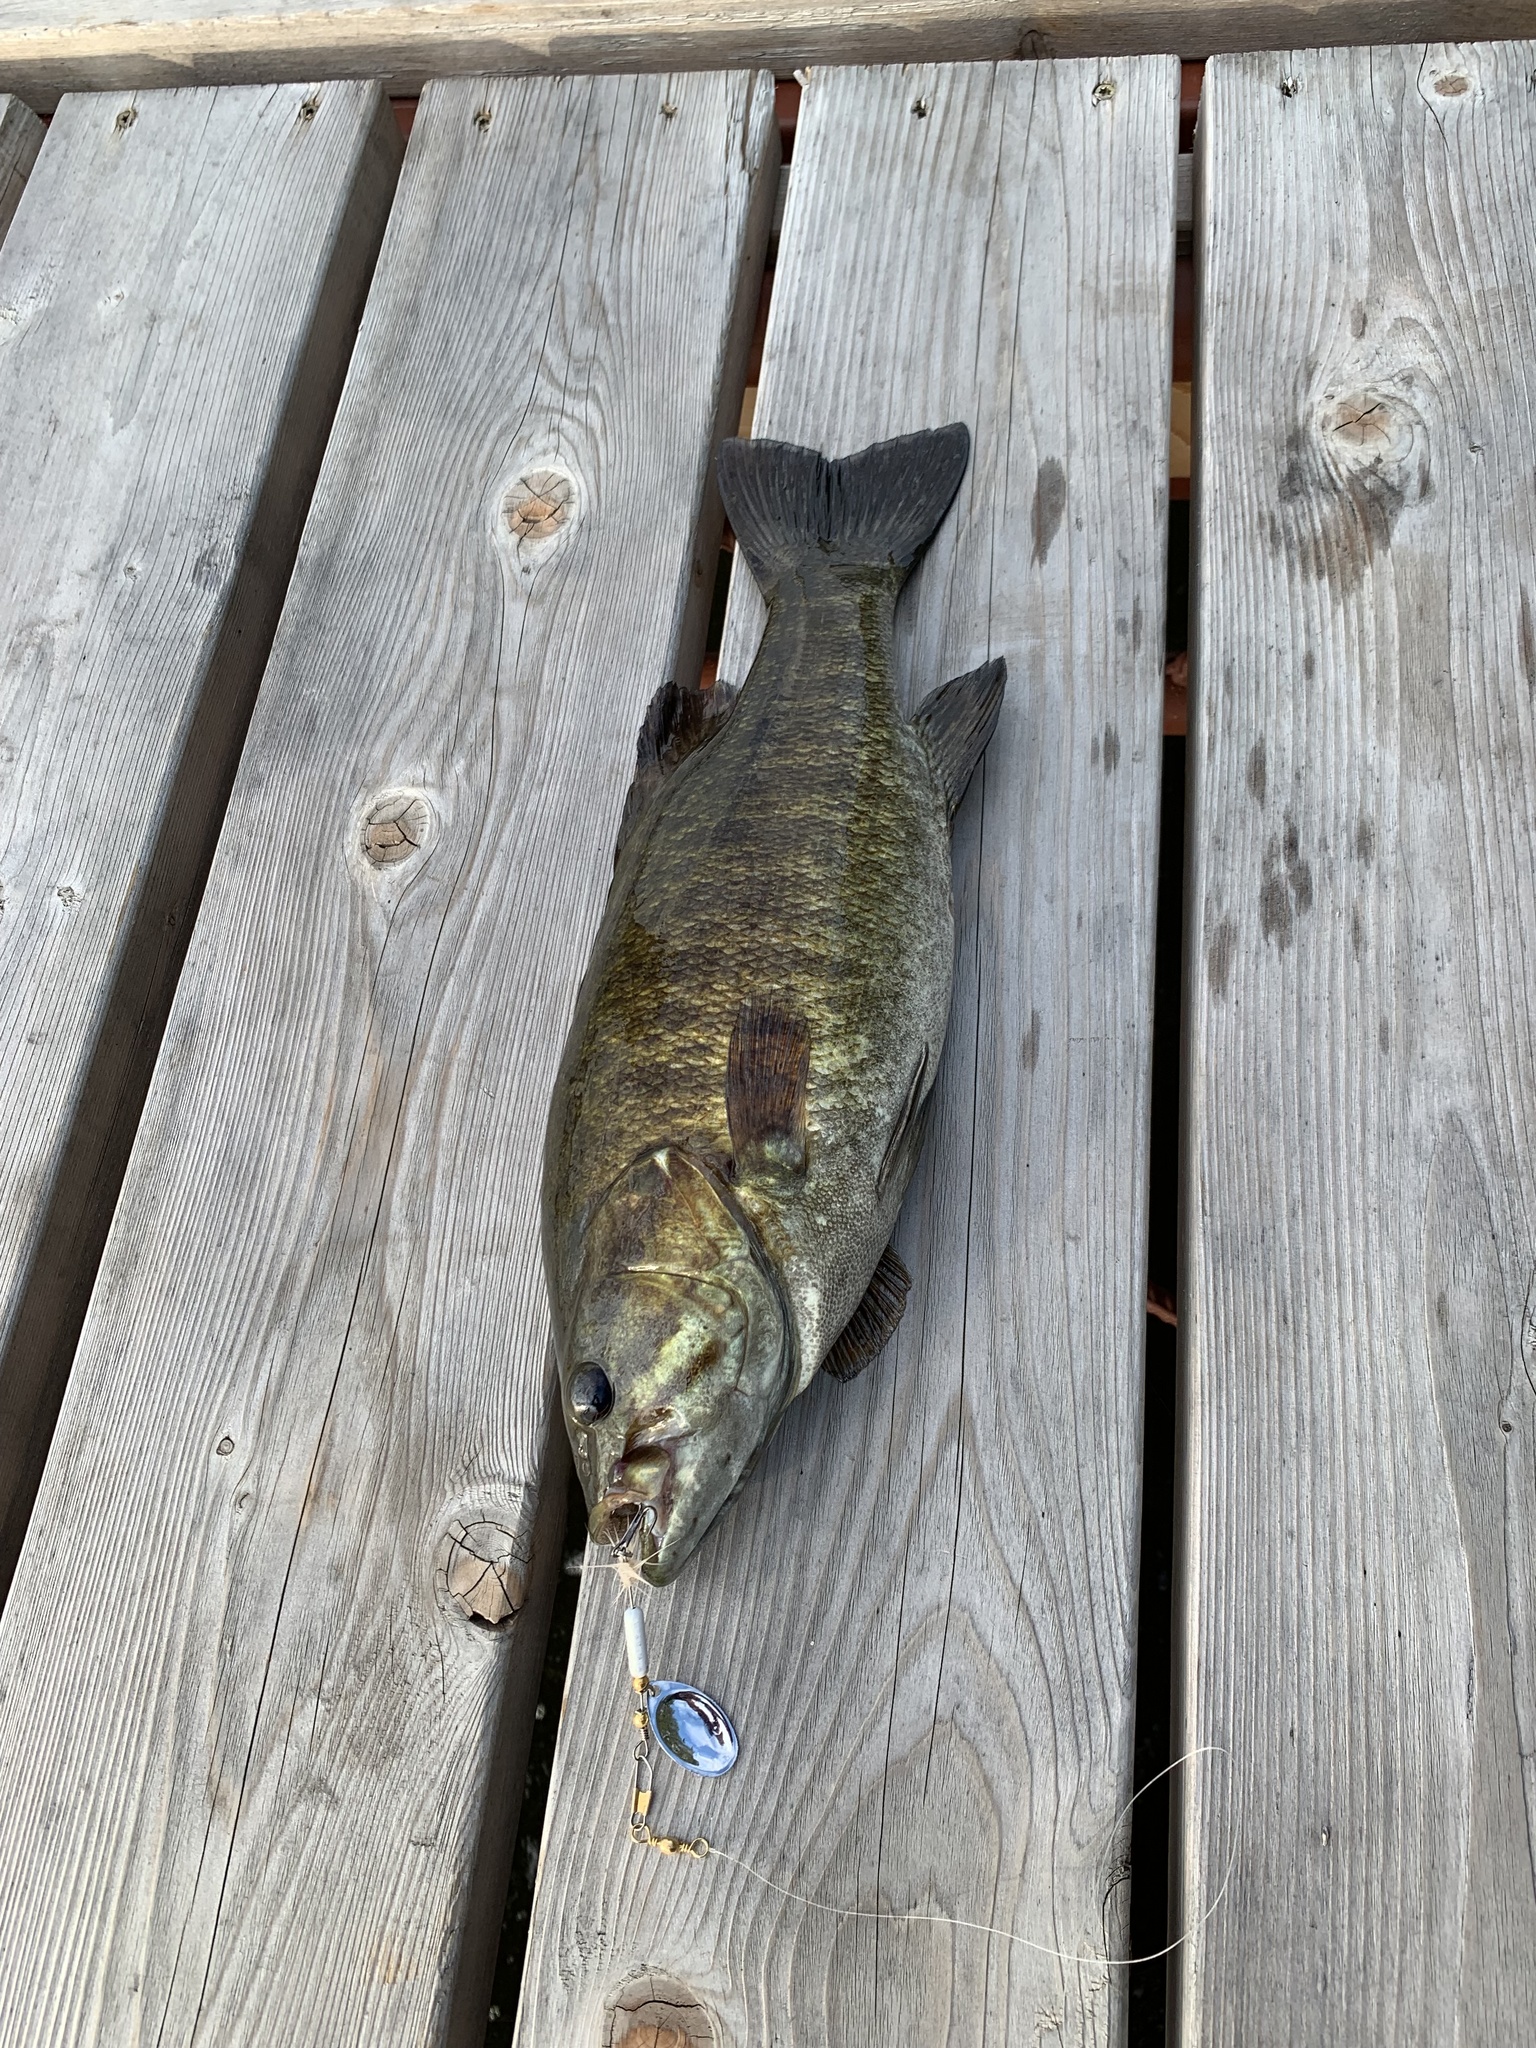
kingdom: Animalia
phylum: Chordata
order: Perciformes
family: Centrarchidae
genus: Micropterus
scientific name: Micropterus dolomieu
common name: Smallmouth bass
